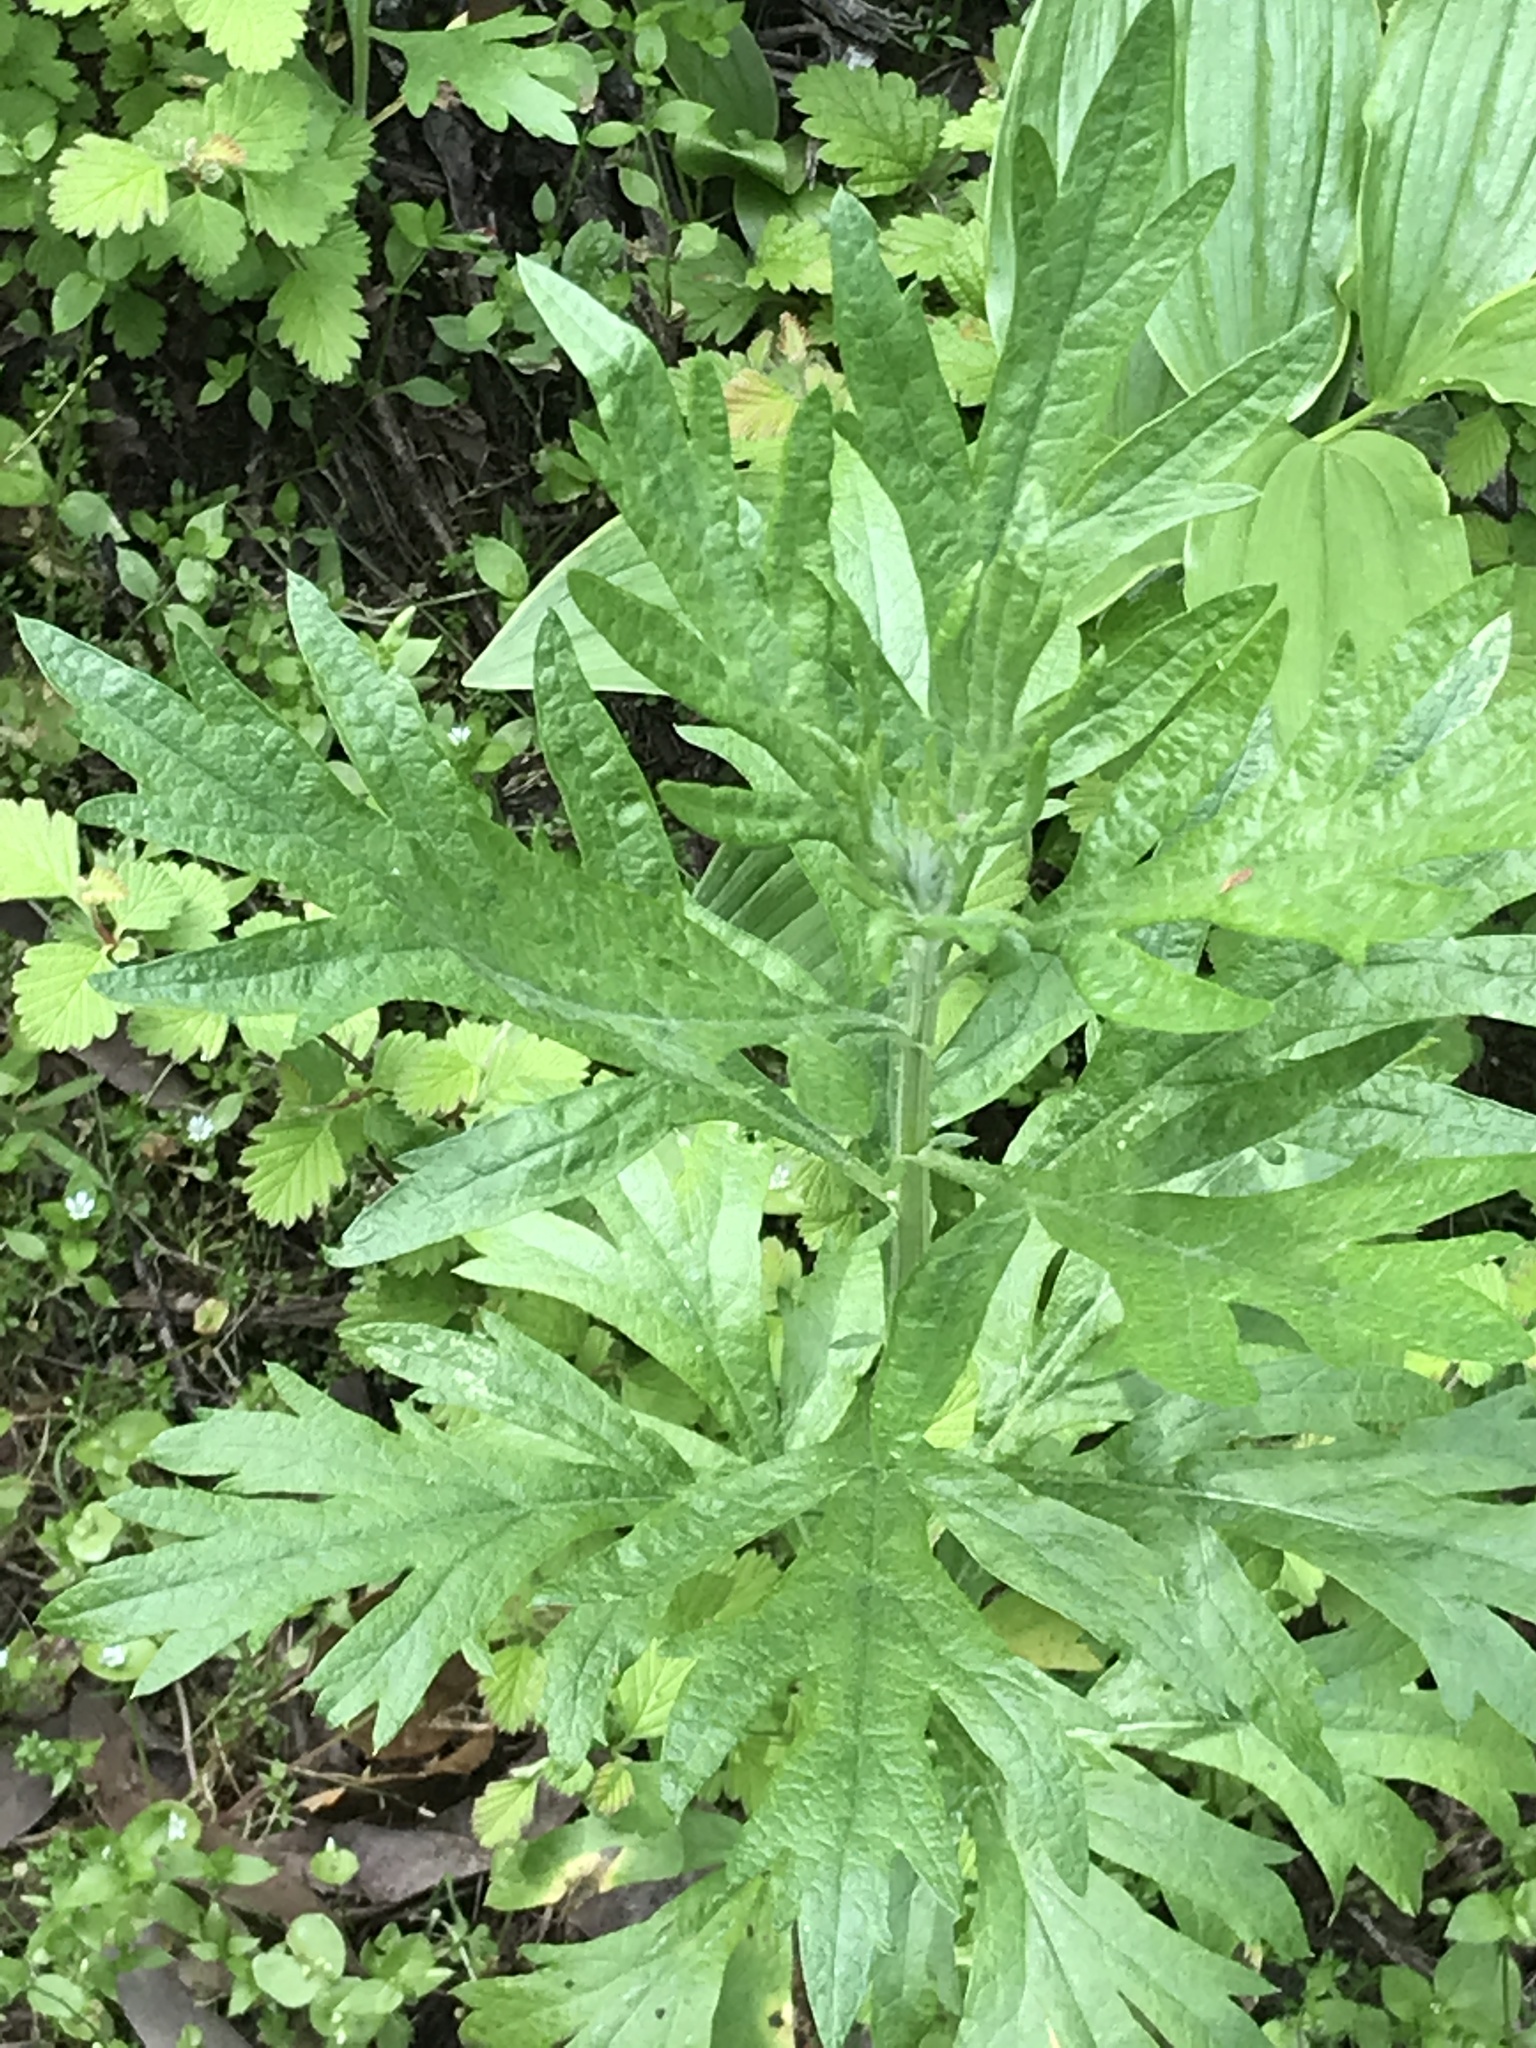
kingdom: Plantae
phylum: Tracheophyta
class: Magnoliopsida
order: Asterales
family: Asteraceae
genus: Artemisia
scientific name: Artemisia douglasiana
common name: Northwest mugwort
